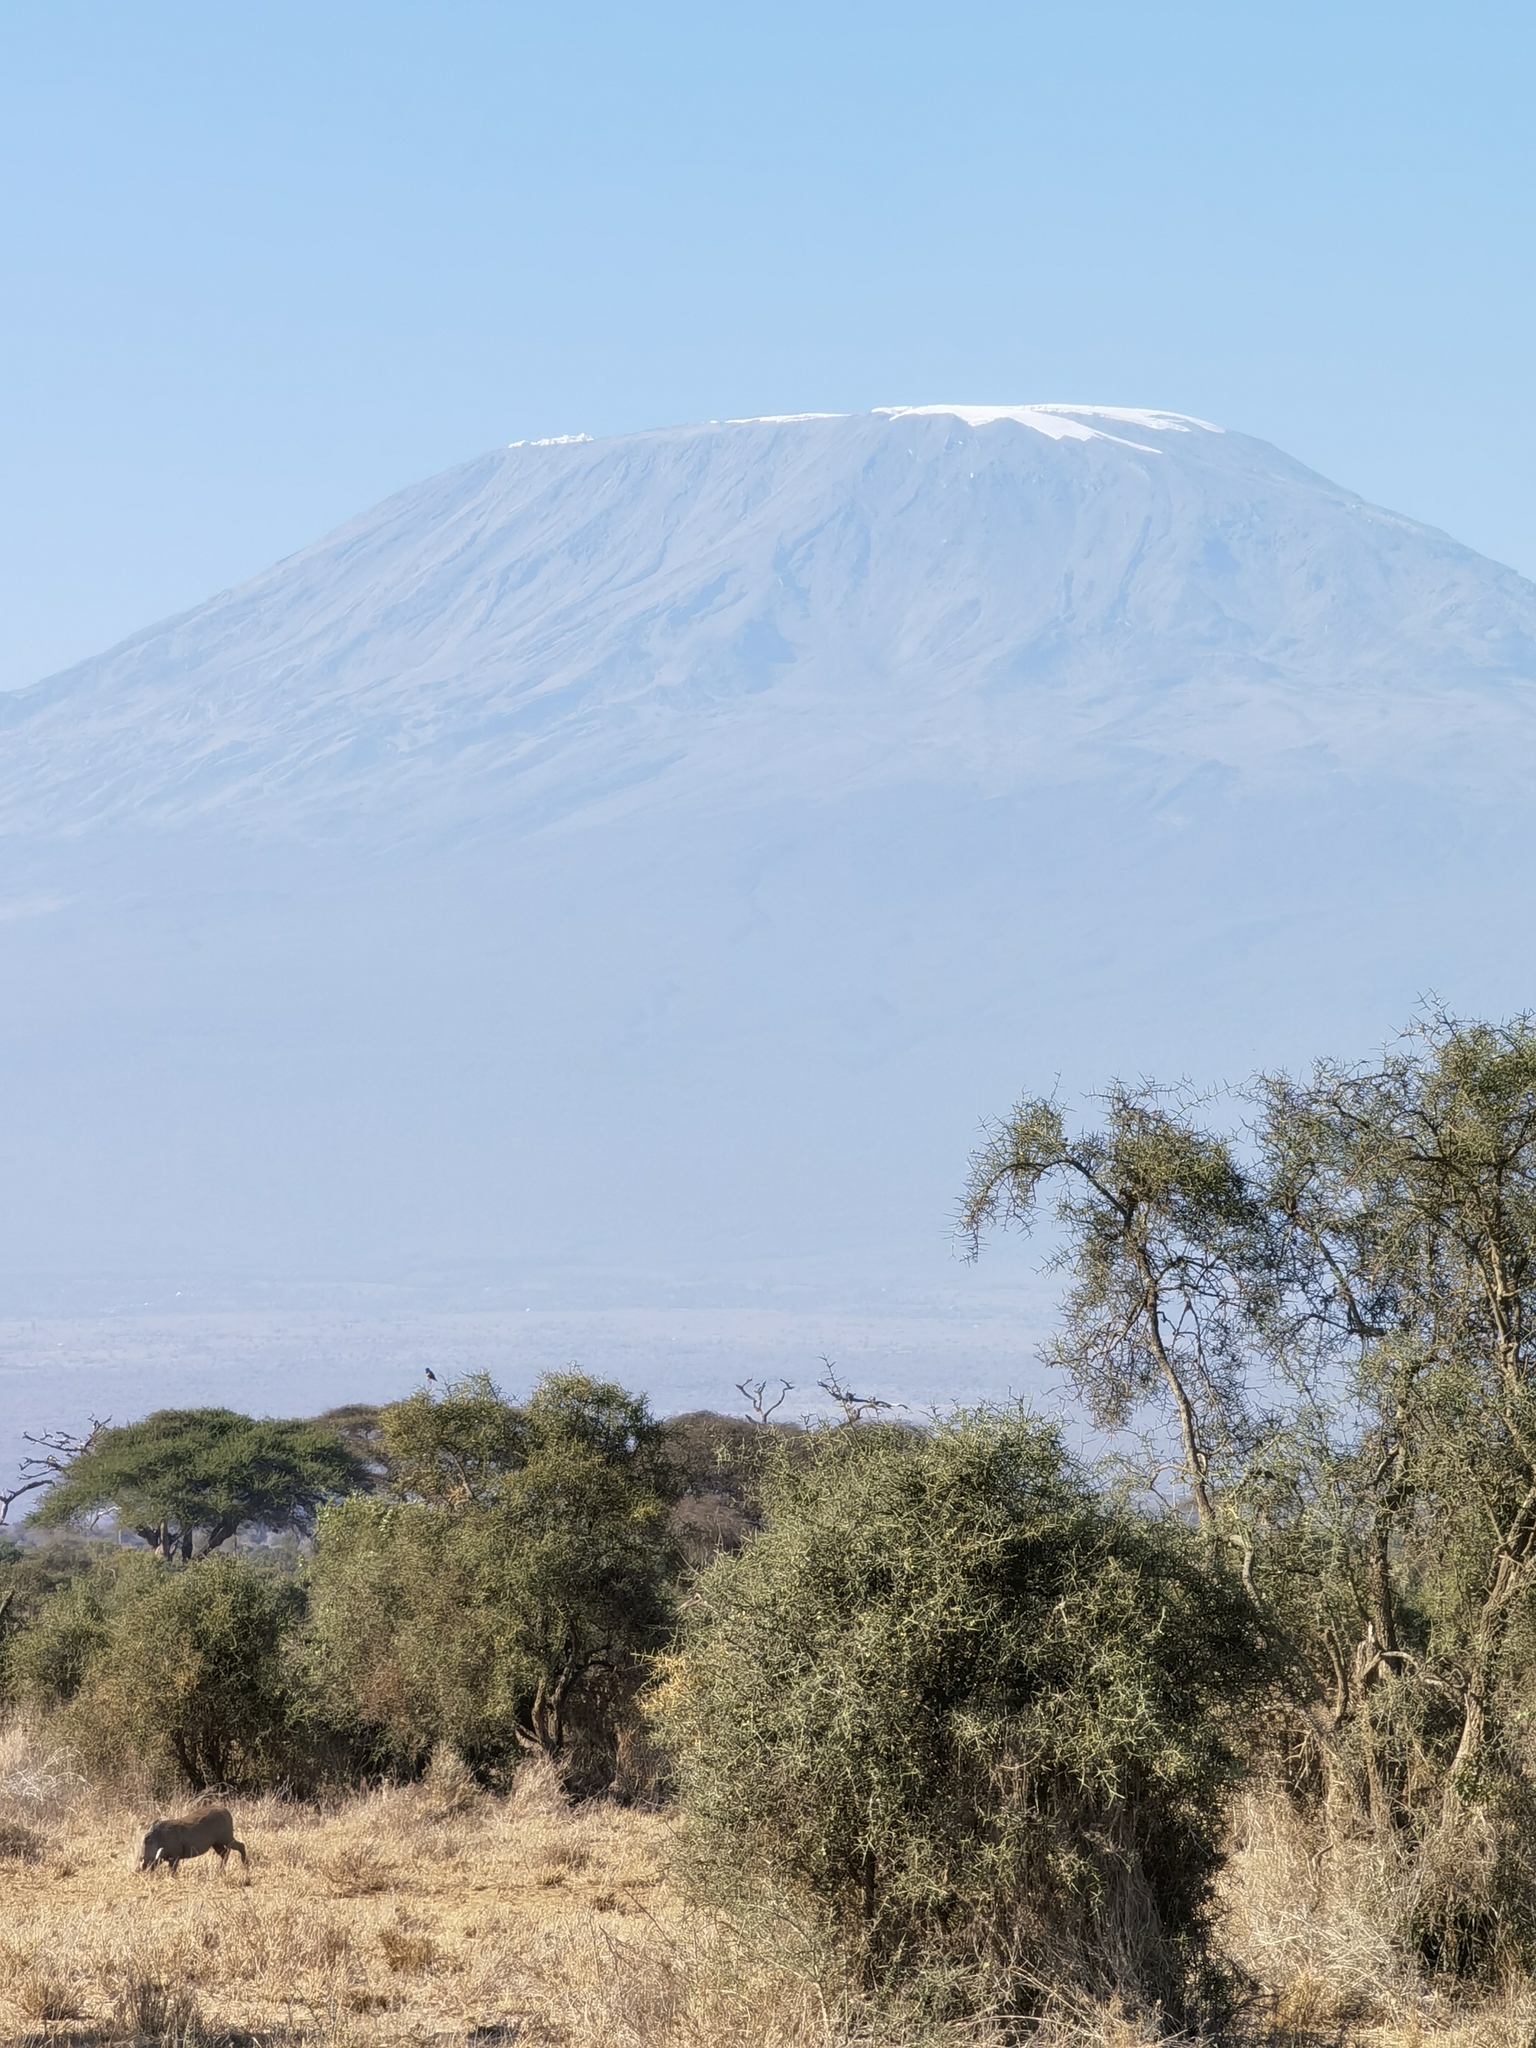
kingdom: Animalia
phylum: Chordata
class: Mammalia
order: Artiodactyla
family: Suidae
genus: Phacochoerus
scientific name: Phacochoerus africanus
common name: Common warthog
